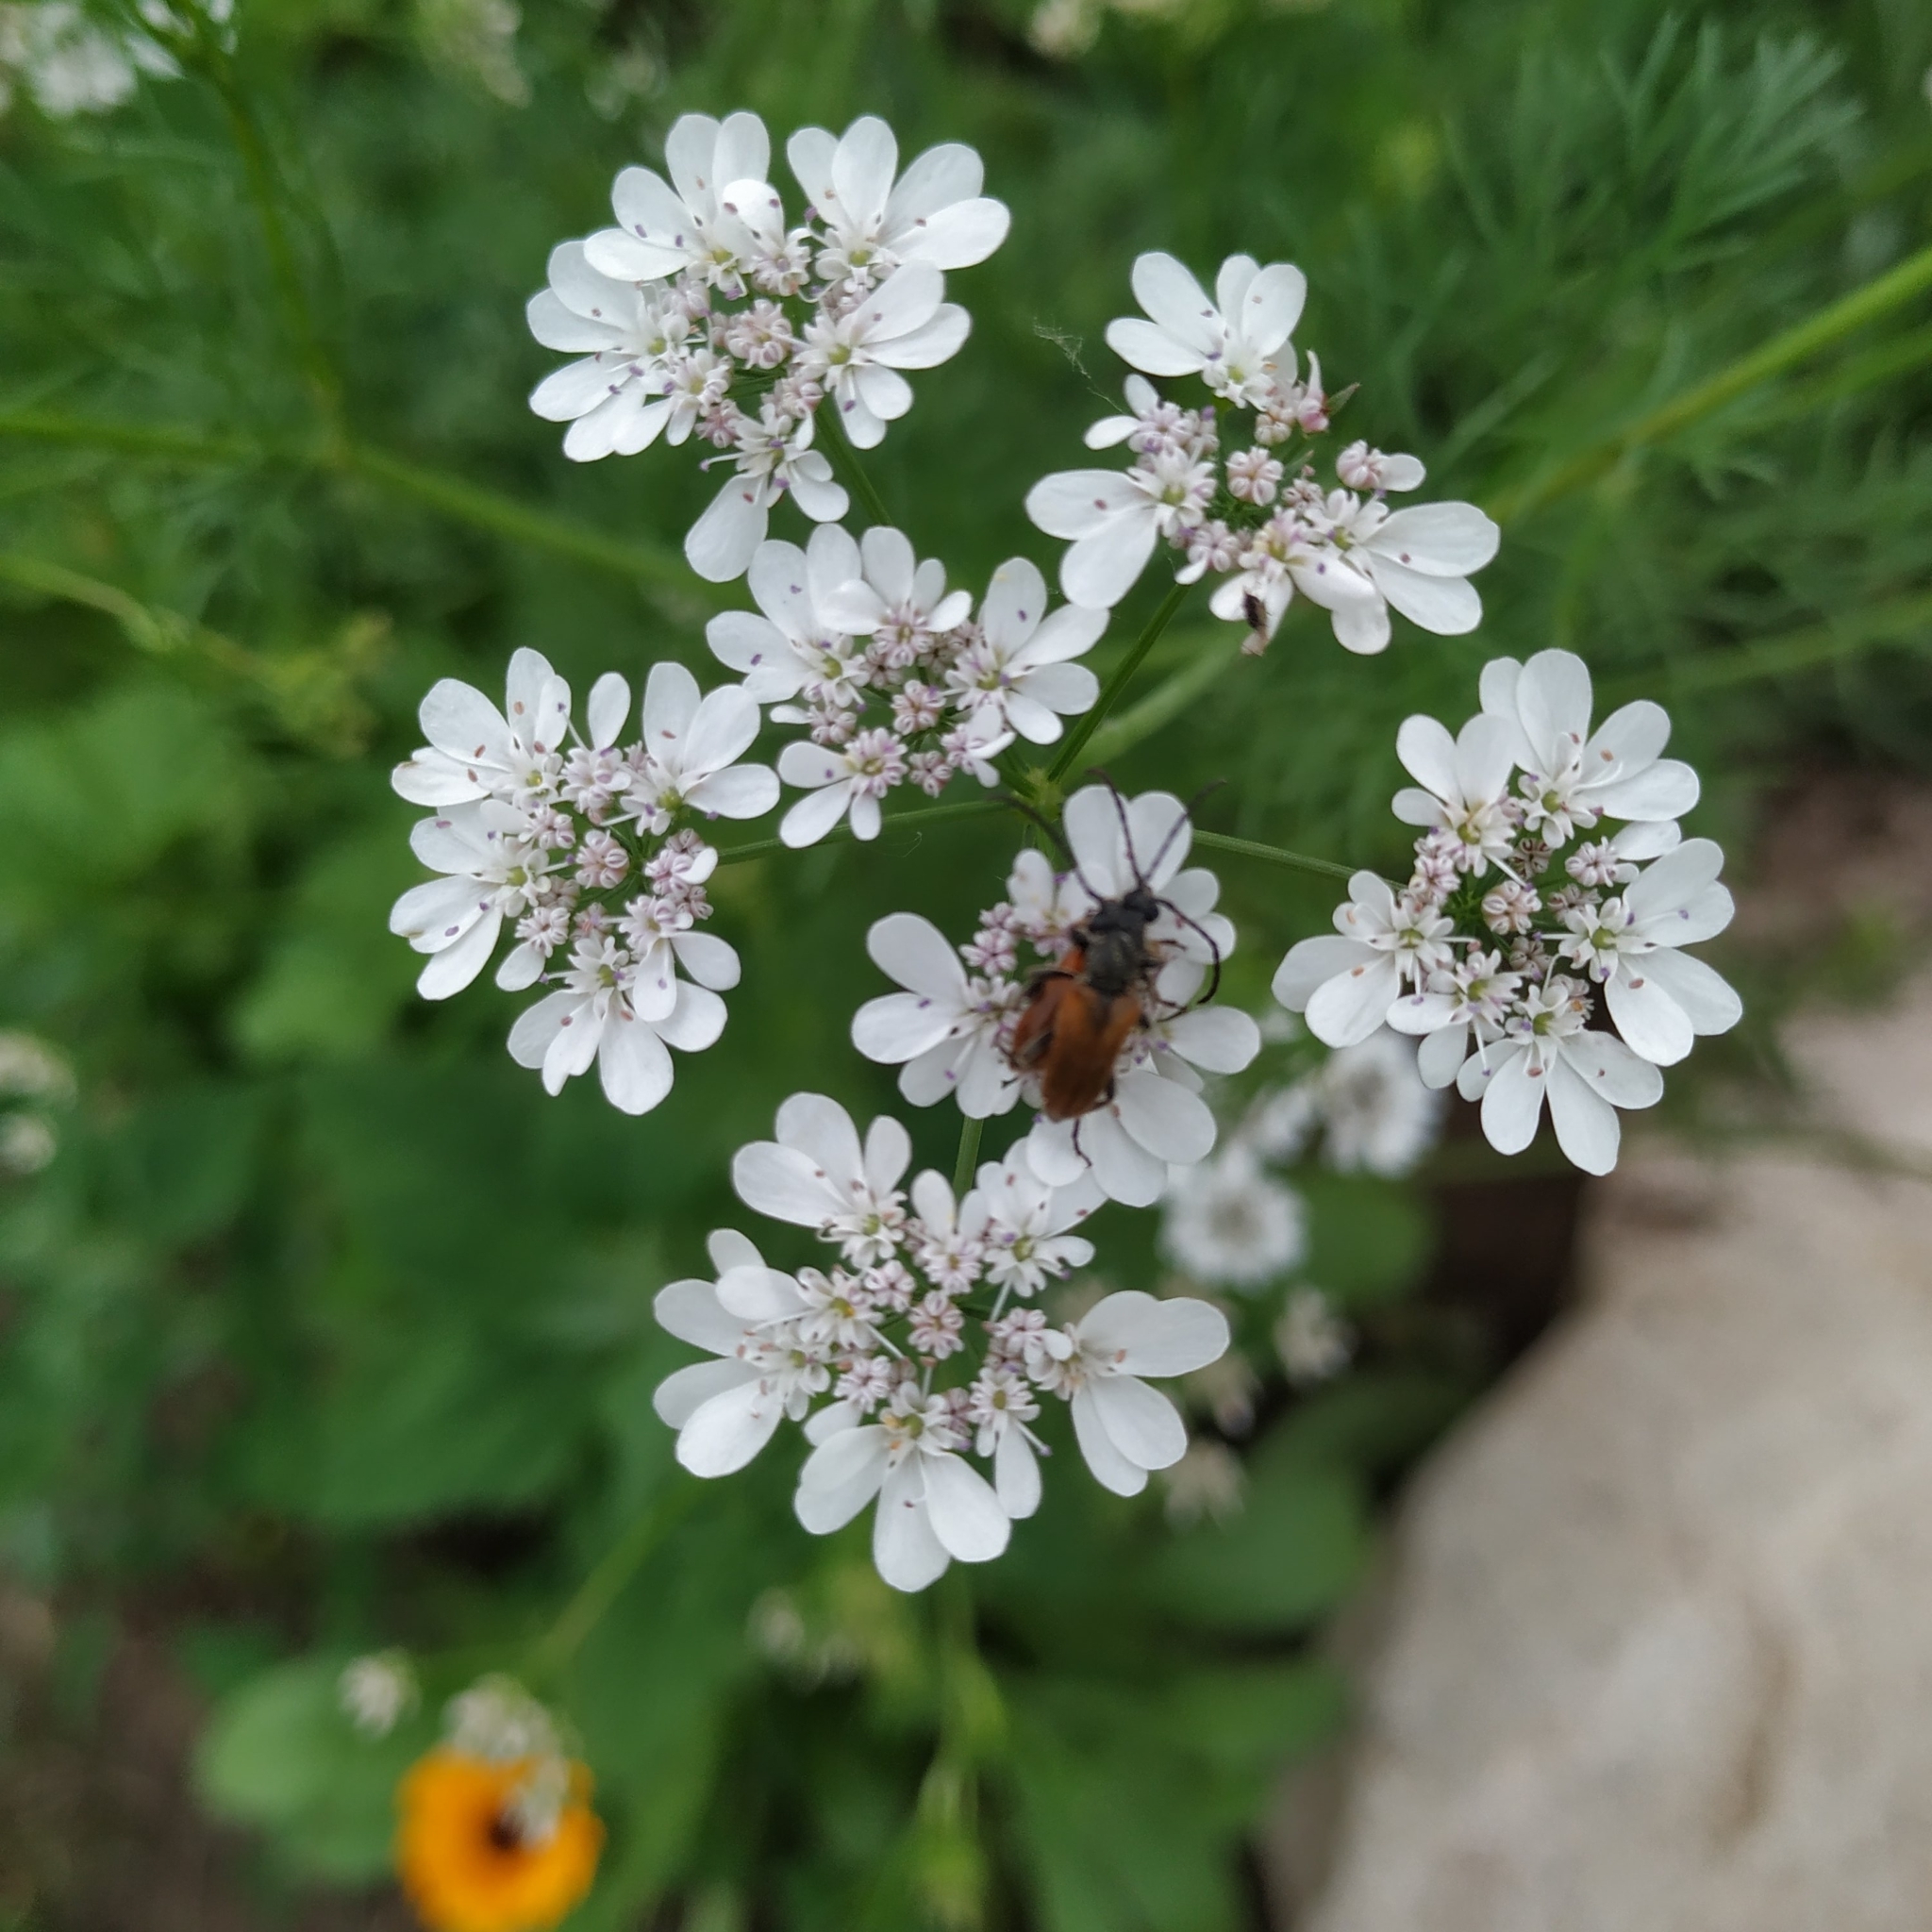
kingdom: Animalia
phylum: Arthropoda
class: Insecta
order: Coleoptera
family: Cerambycidae
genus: Pseudovadonia
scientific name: Pseudovadonia livida
